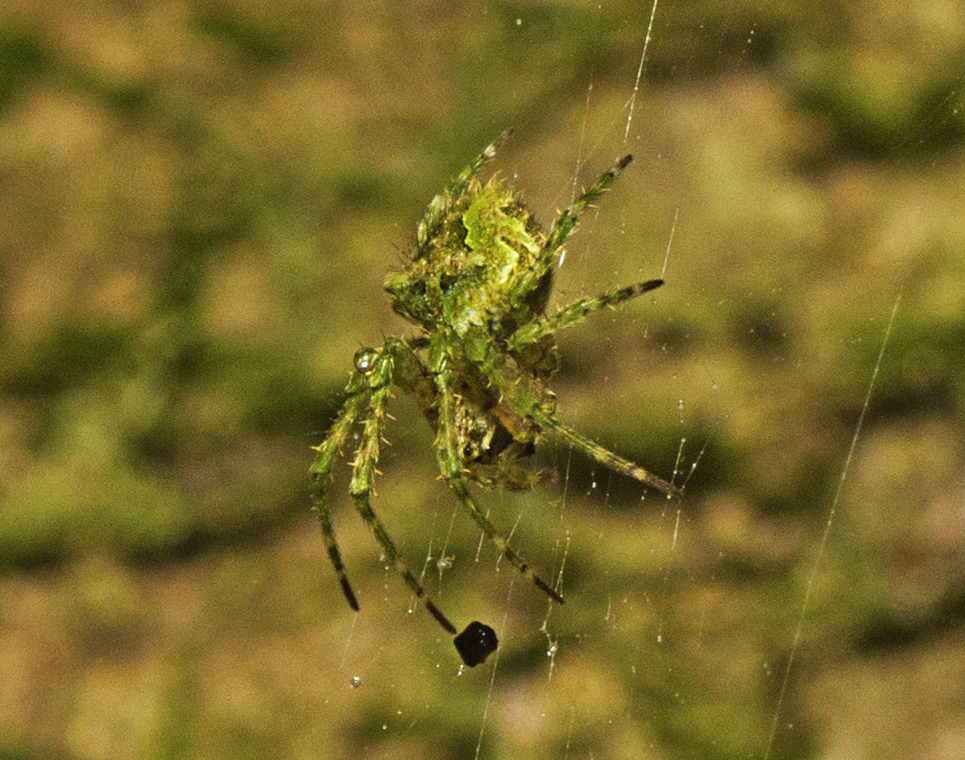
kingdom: Animalia
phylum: Arthropoda
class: Arachnida
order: Araneae
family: Araneidae
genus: Telaprocera
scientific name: Telaprocera joanae
